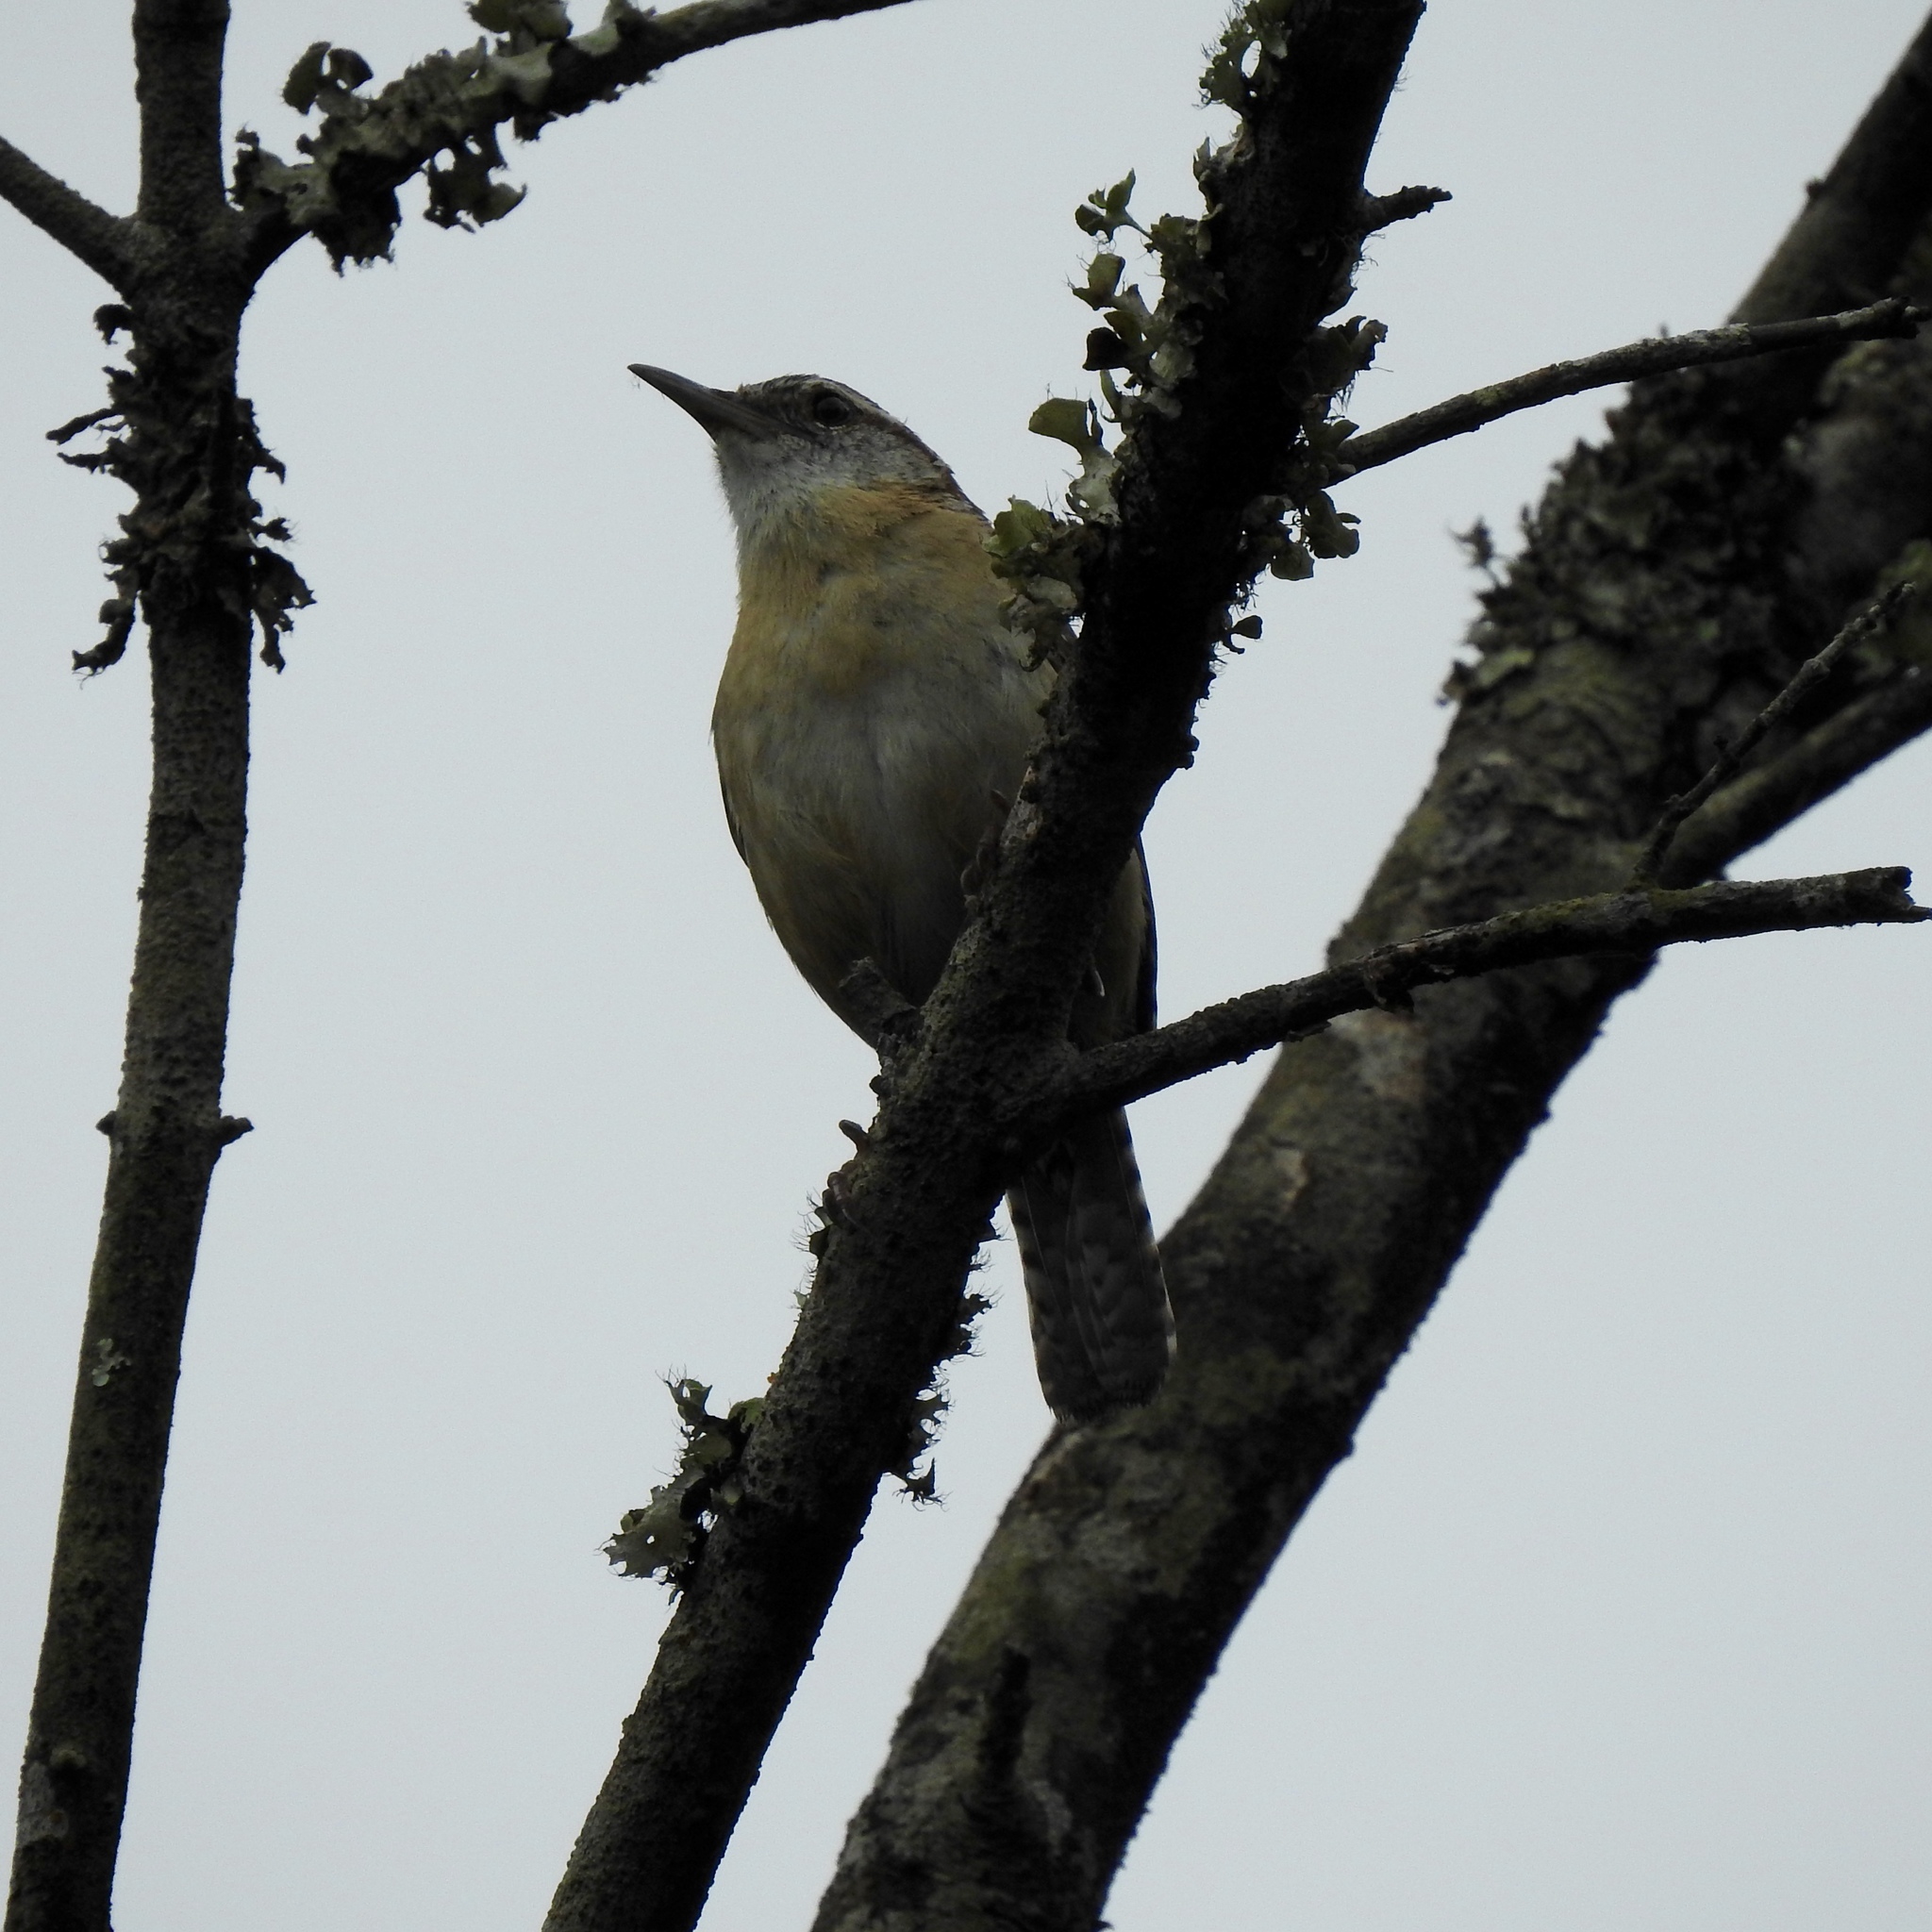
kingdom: Animalia
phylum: Chordata
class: Aves
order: Passeriformes
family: Troglodytidae
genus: Thryothorus
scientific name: Thryothorus ludovicianus
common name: Carolina wren
